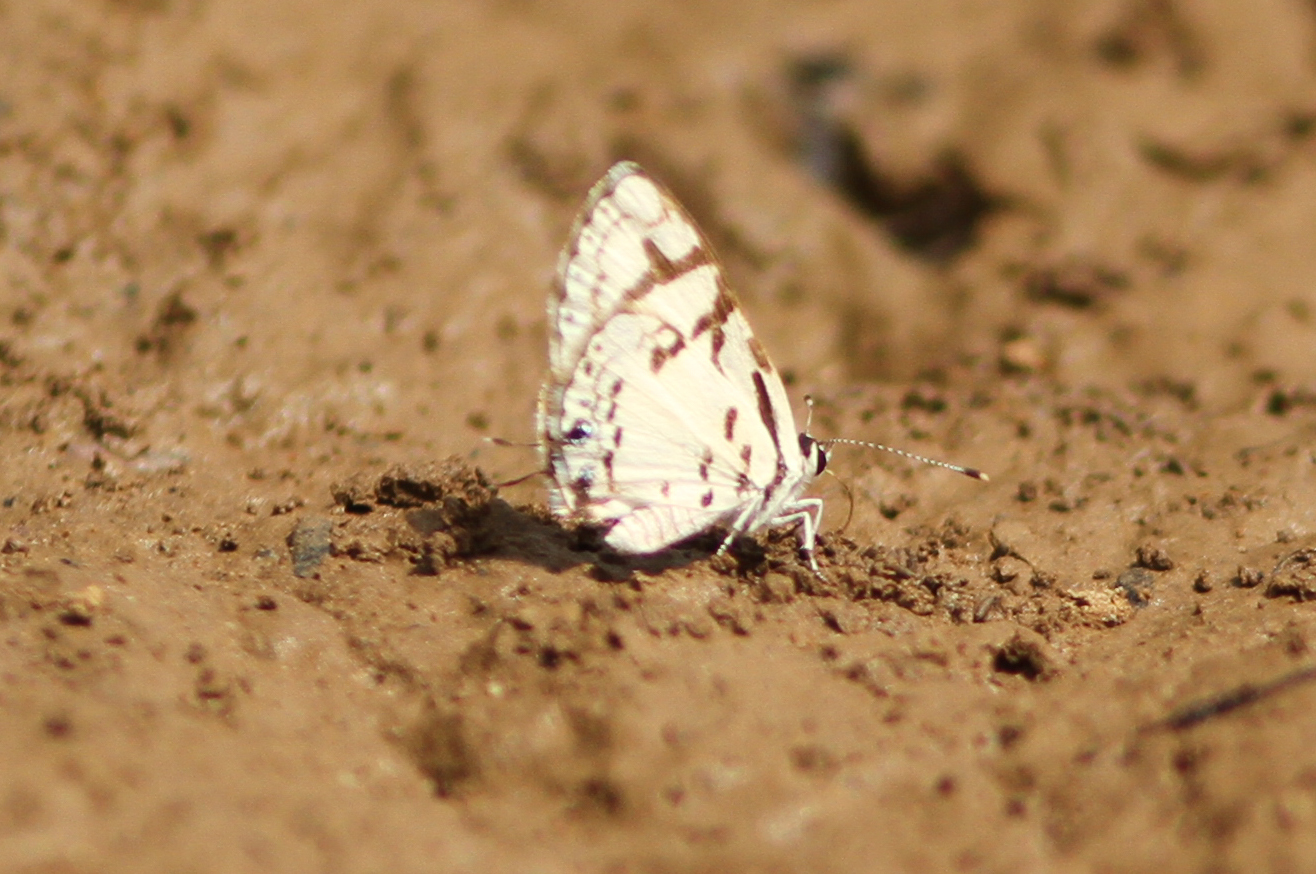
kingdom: Animalia
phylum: Arthropoda
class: Insecta
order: Lepidoptera
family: Lycaenidae
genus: Tuxentius
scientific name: Tuxentius
